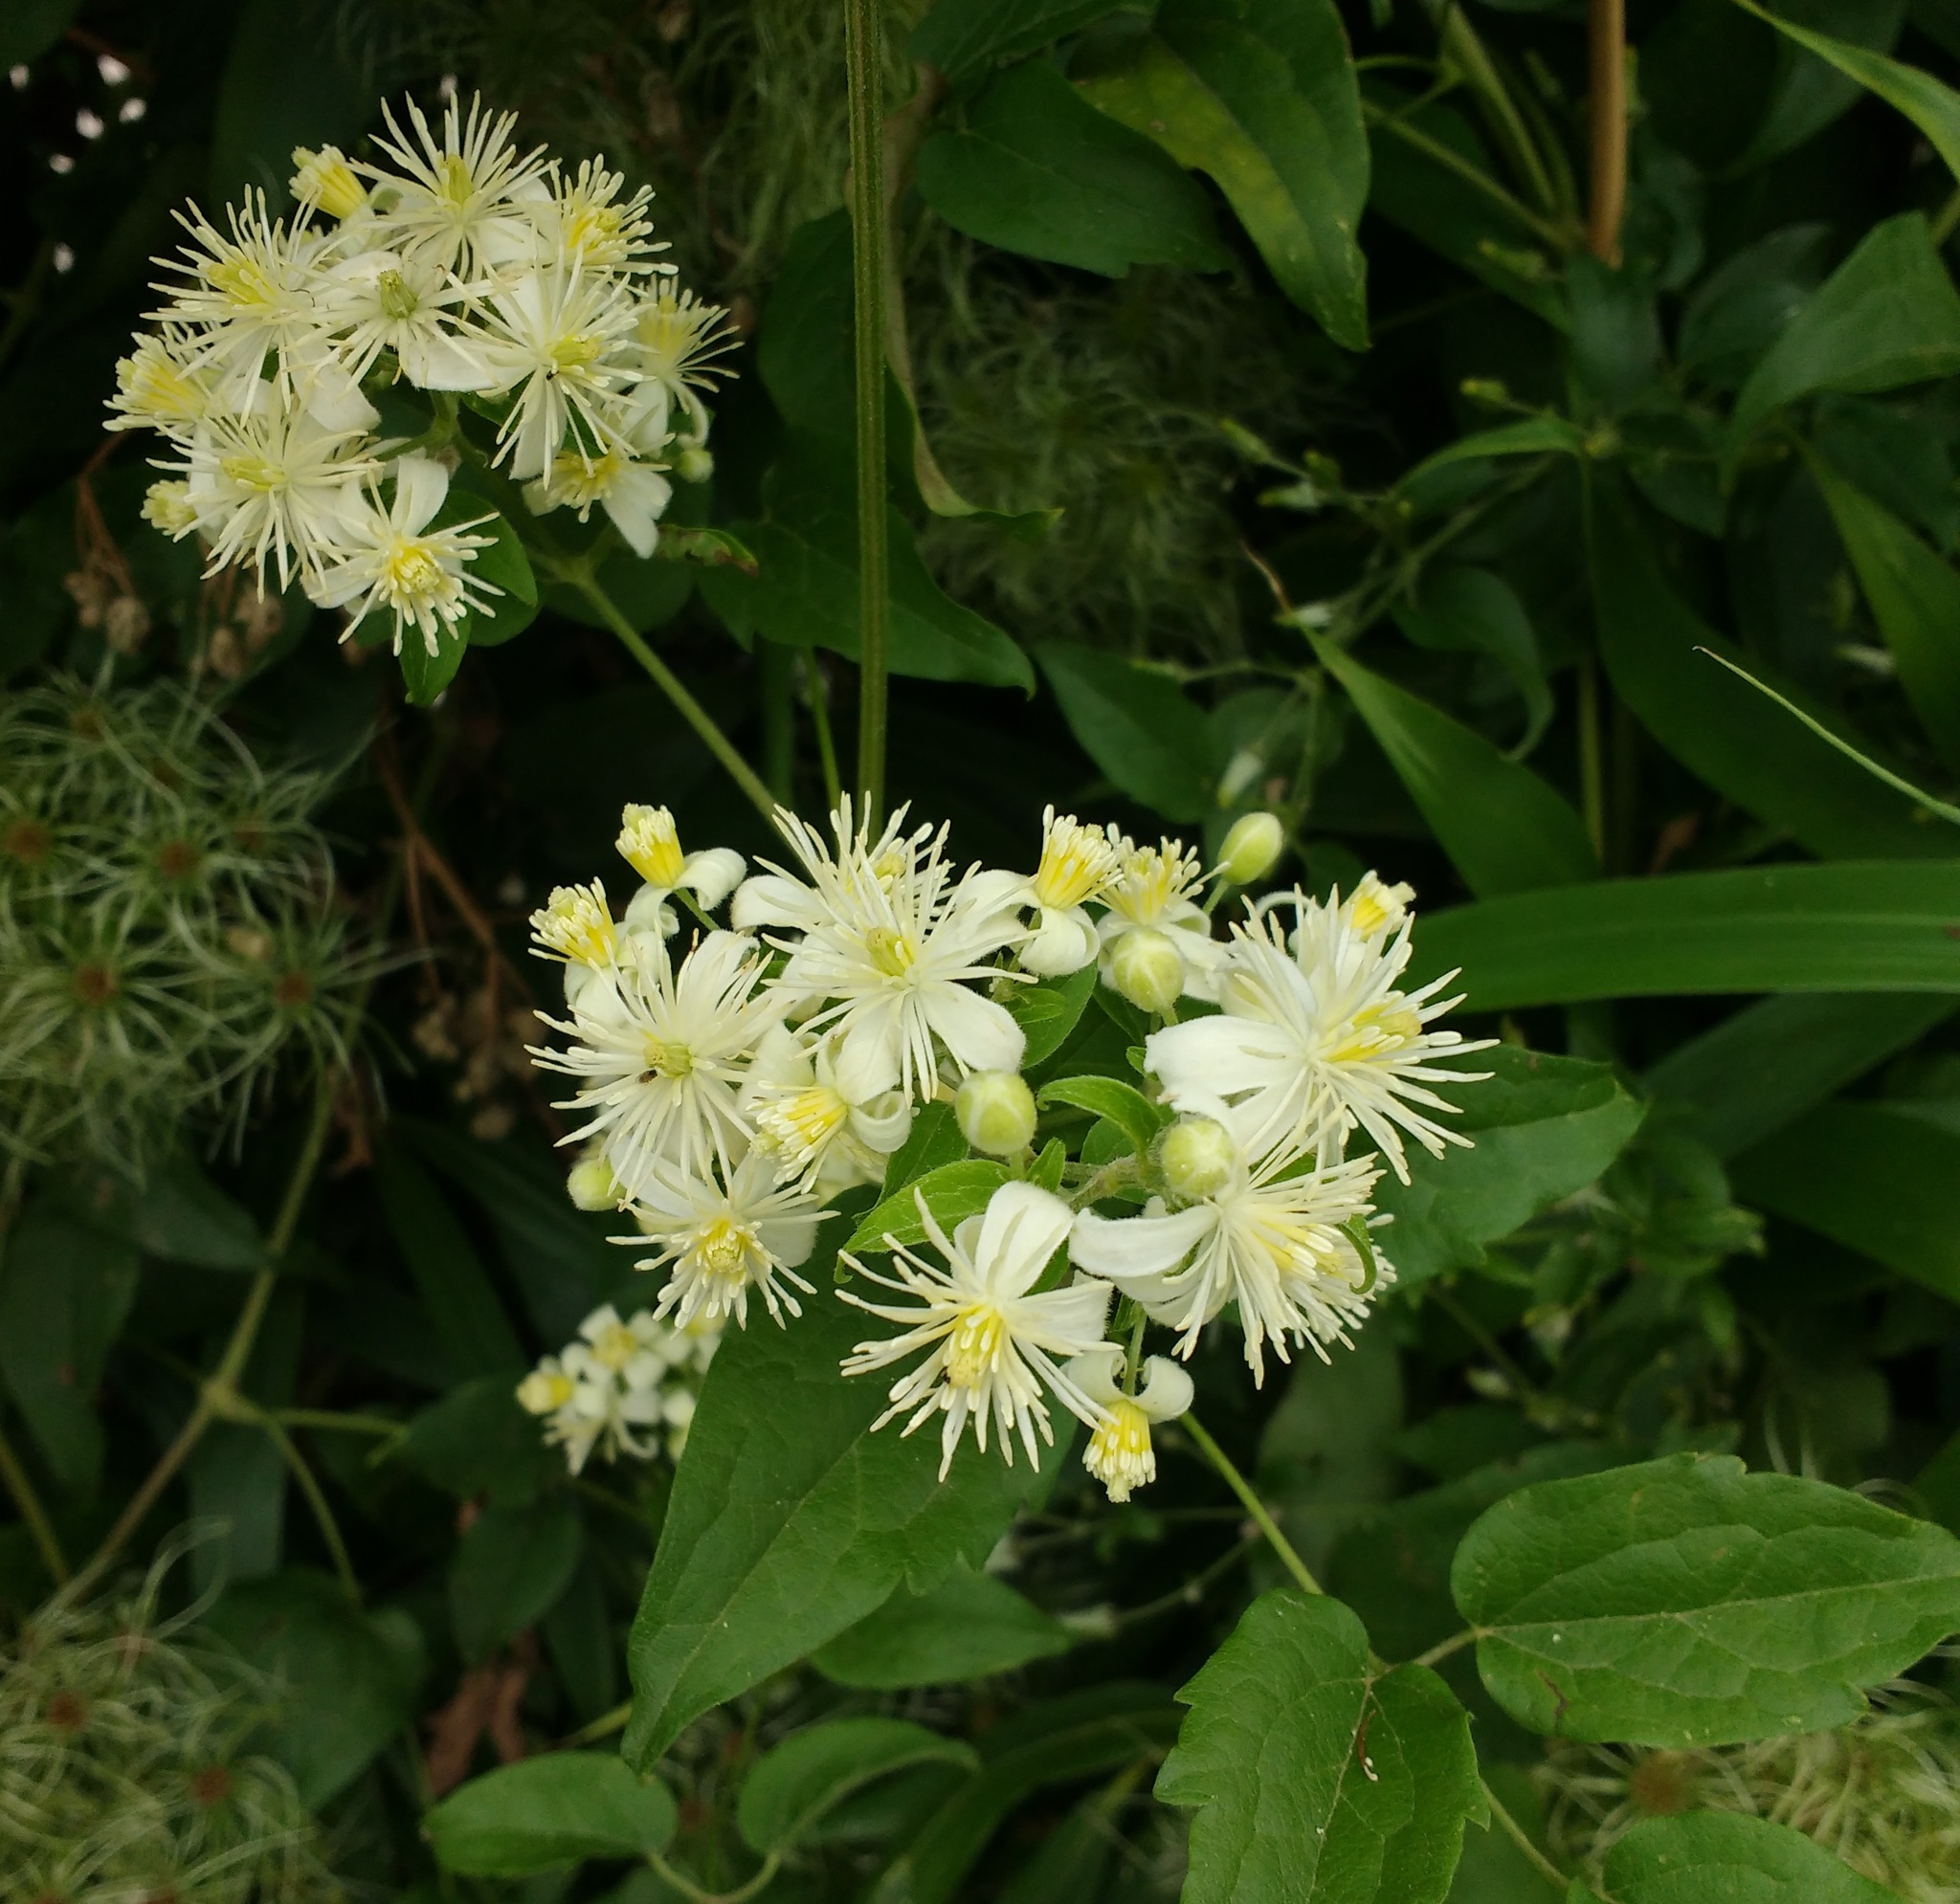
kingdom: Plantae
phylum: Tracheophyta
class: Magnoliopsida
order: Ranunculales
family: Ranunculaceae
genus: Clematis
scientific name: Clematis vitalba
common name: Evergreen clematis
